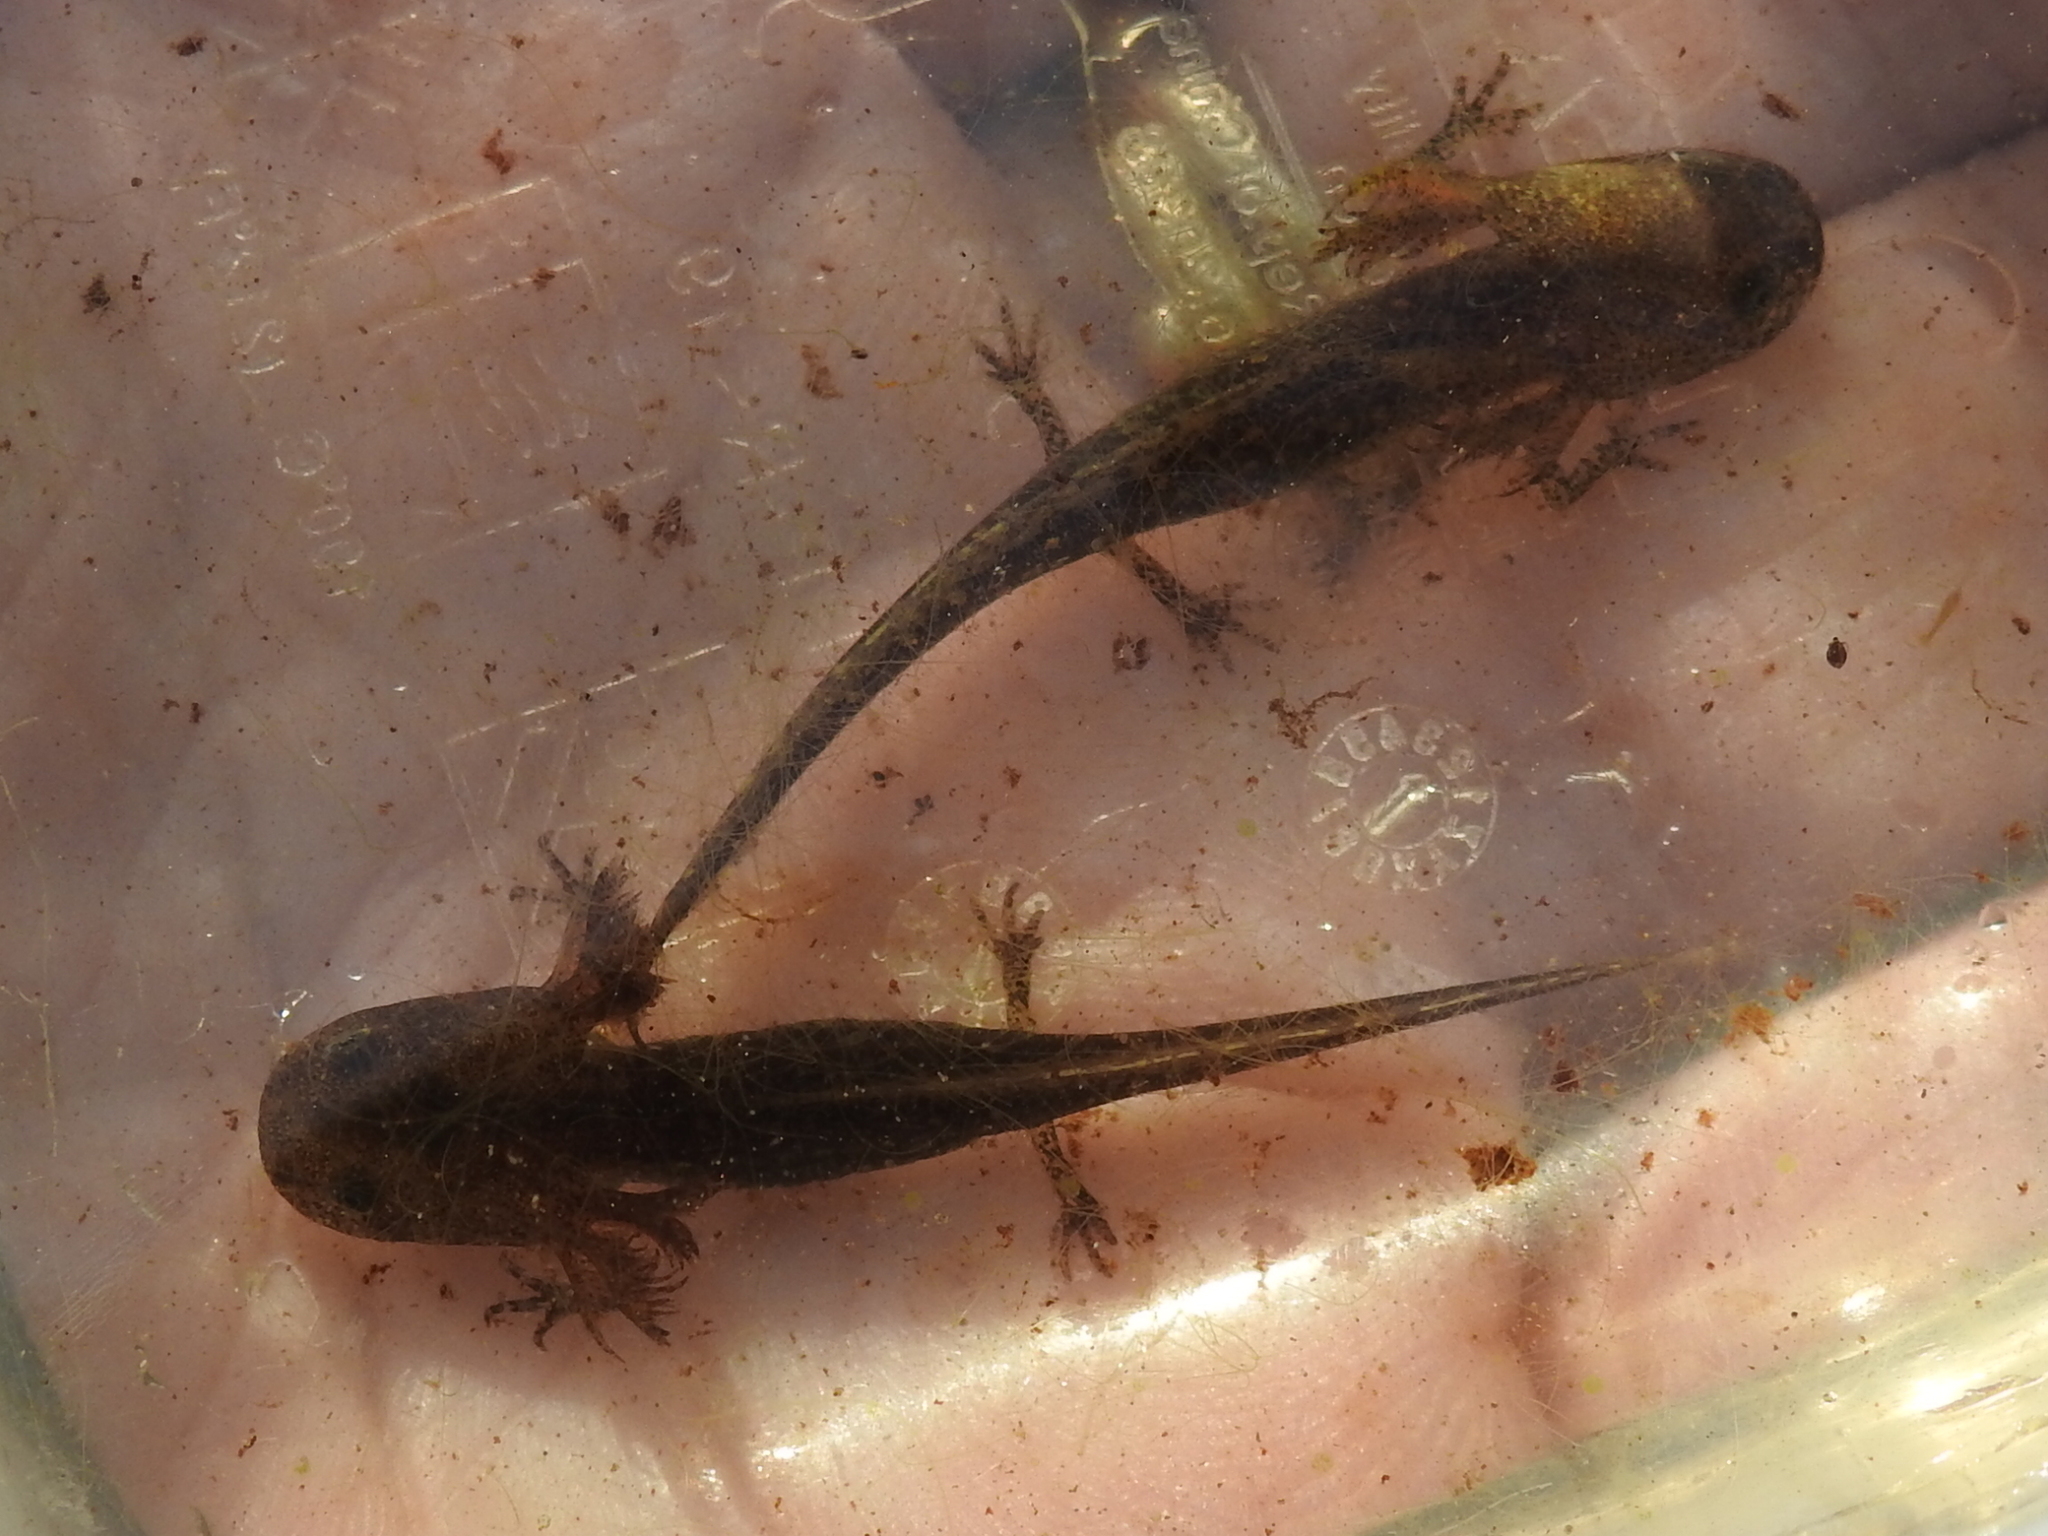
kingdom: Animalia
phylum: Chordata
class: Amphibia
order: Caudata
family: Ambystomatidae
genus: Ambystoma
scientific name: Ambystoma opacum
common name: Marbled salamander
